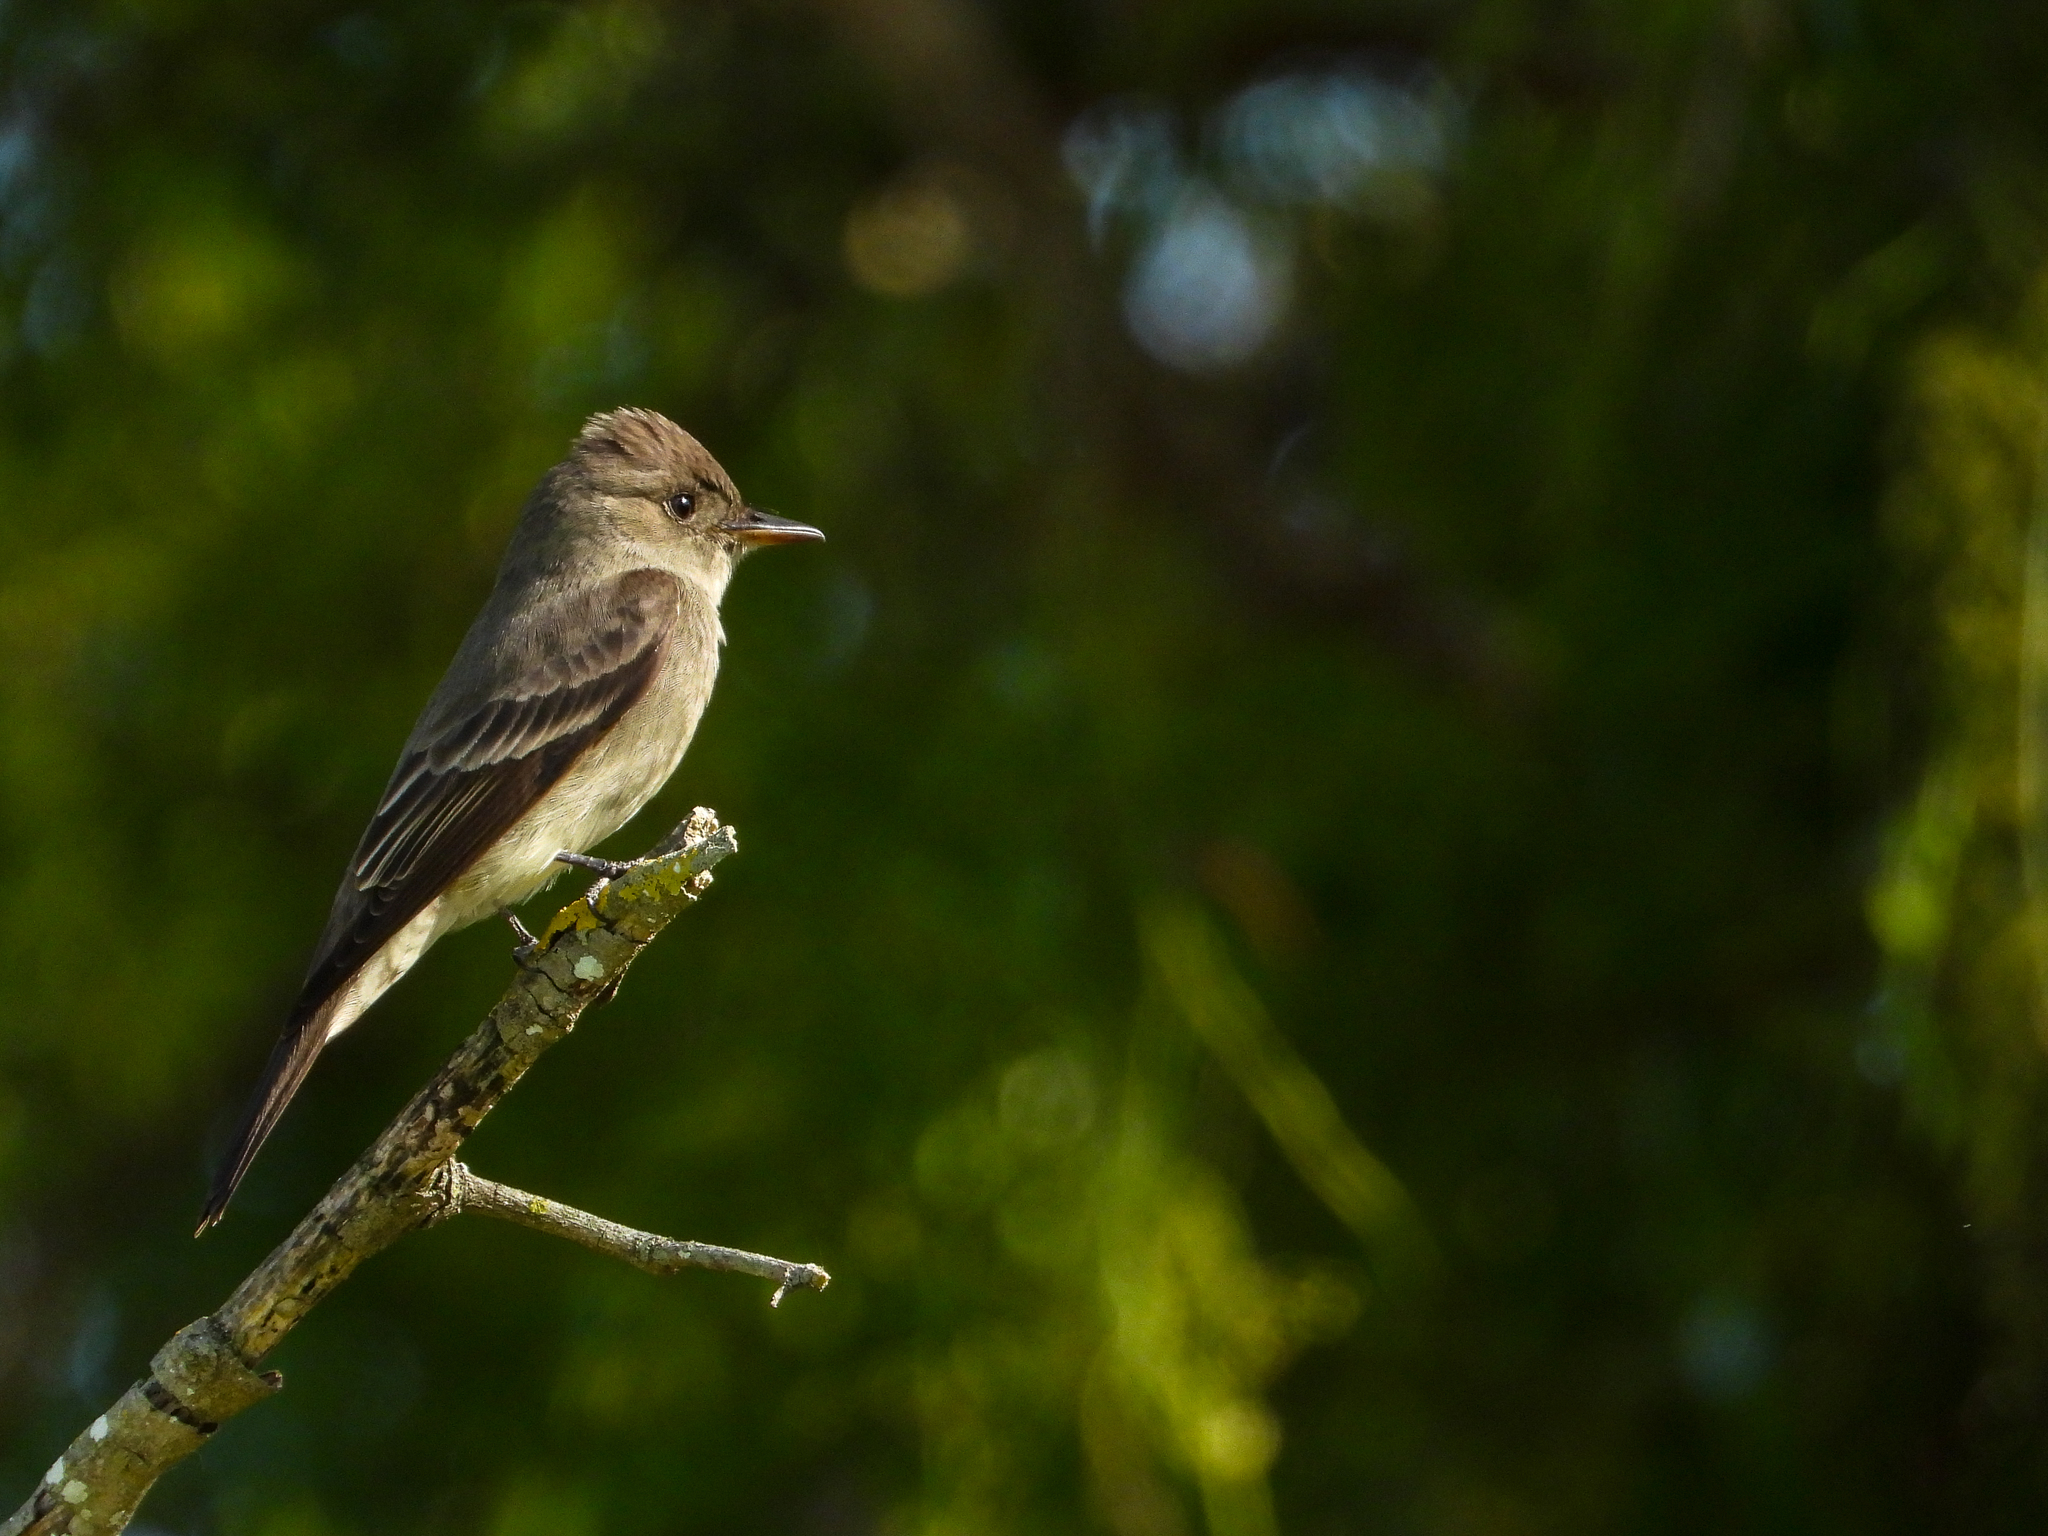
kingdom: Animalia
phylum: Chordata
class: Aves
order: Passeriformes
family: Tyrannidae
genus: Contopus
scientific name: Contopus sordidulus
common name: Western wood-pewee
